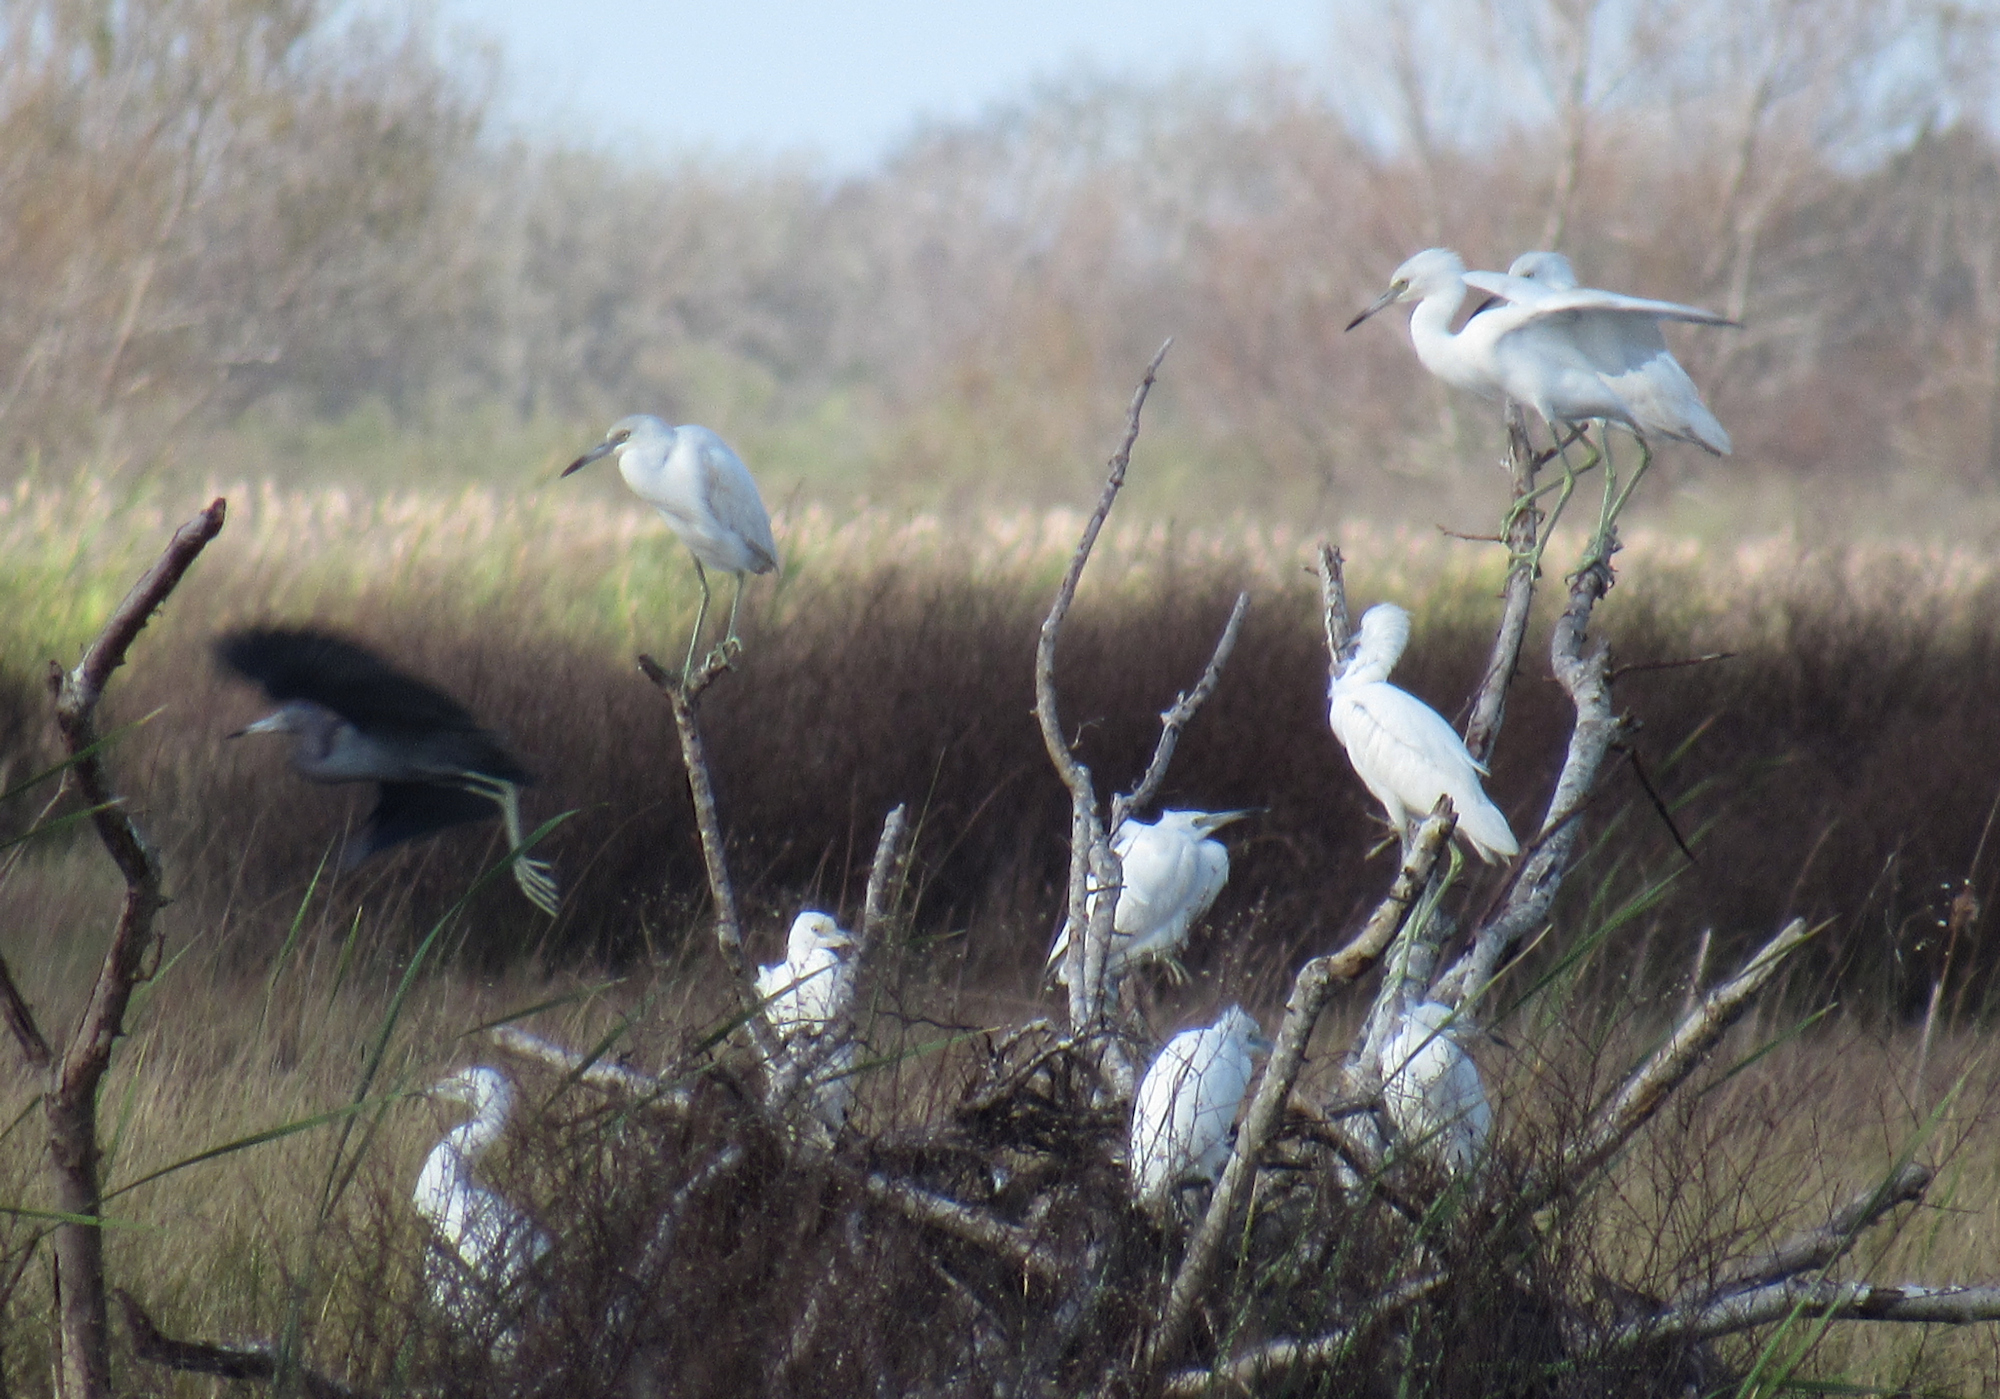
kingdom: Animalia
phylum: Chordata
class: Aves
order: Pelecaniformes
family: Ardeidae
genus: Egretta
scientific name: Egretta caerulea
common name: Little blue heron
